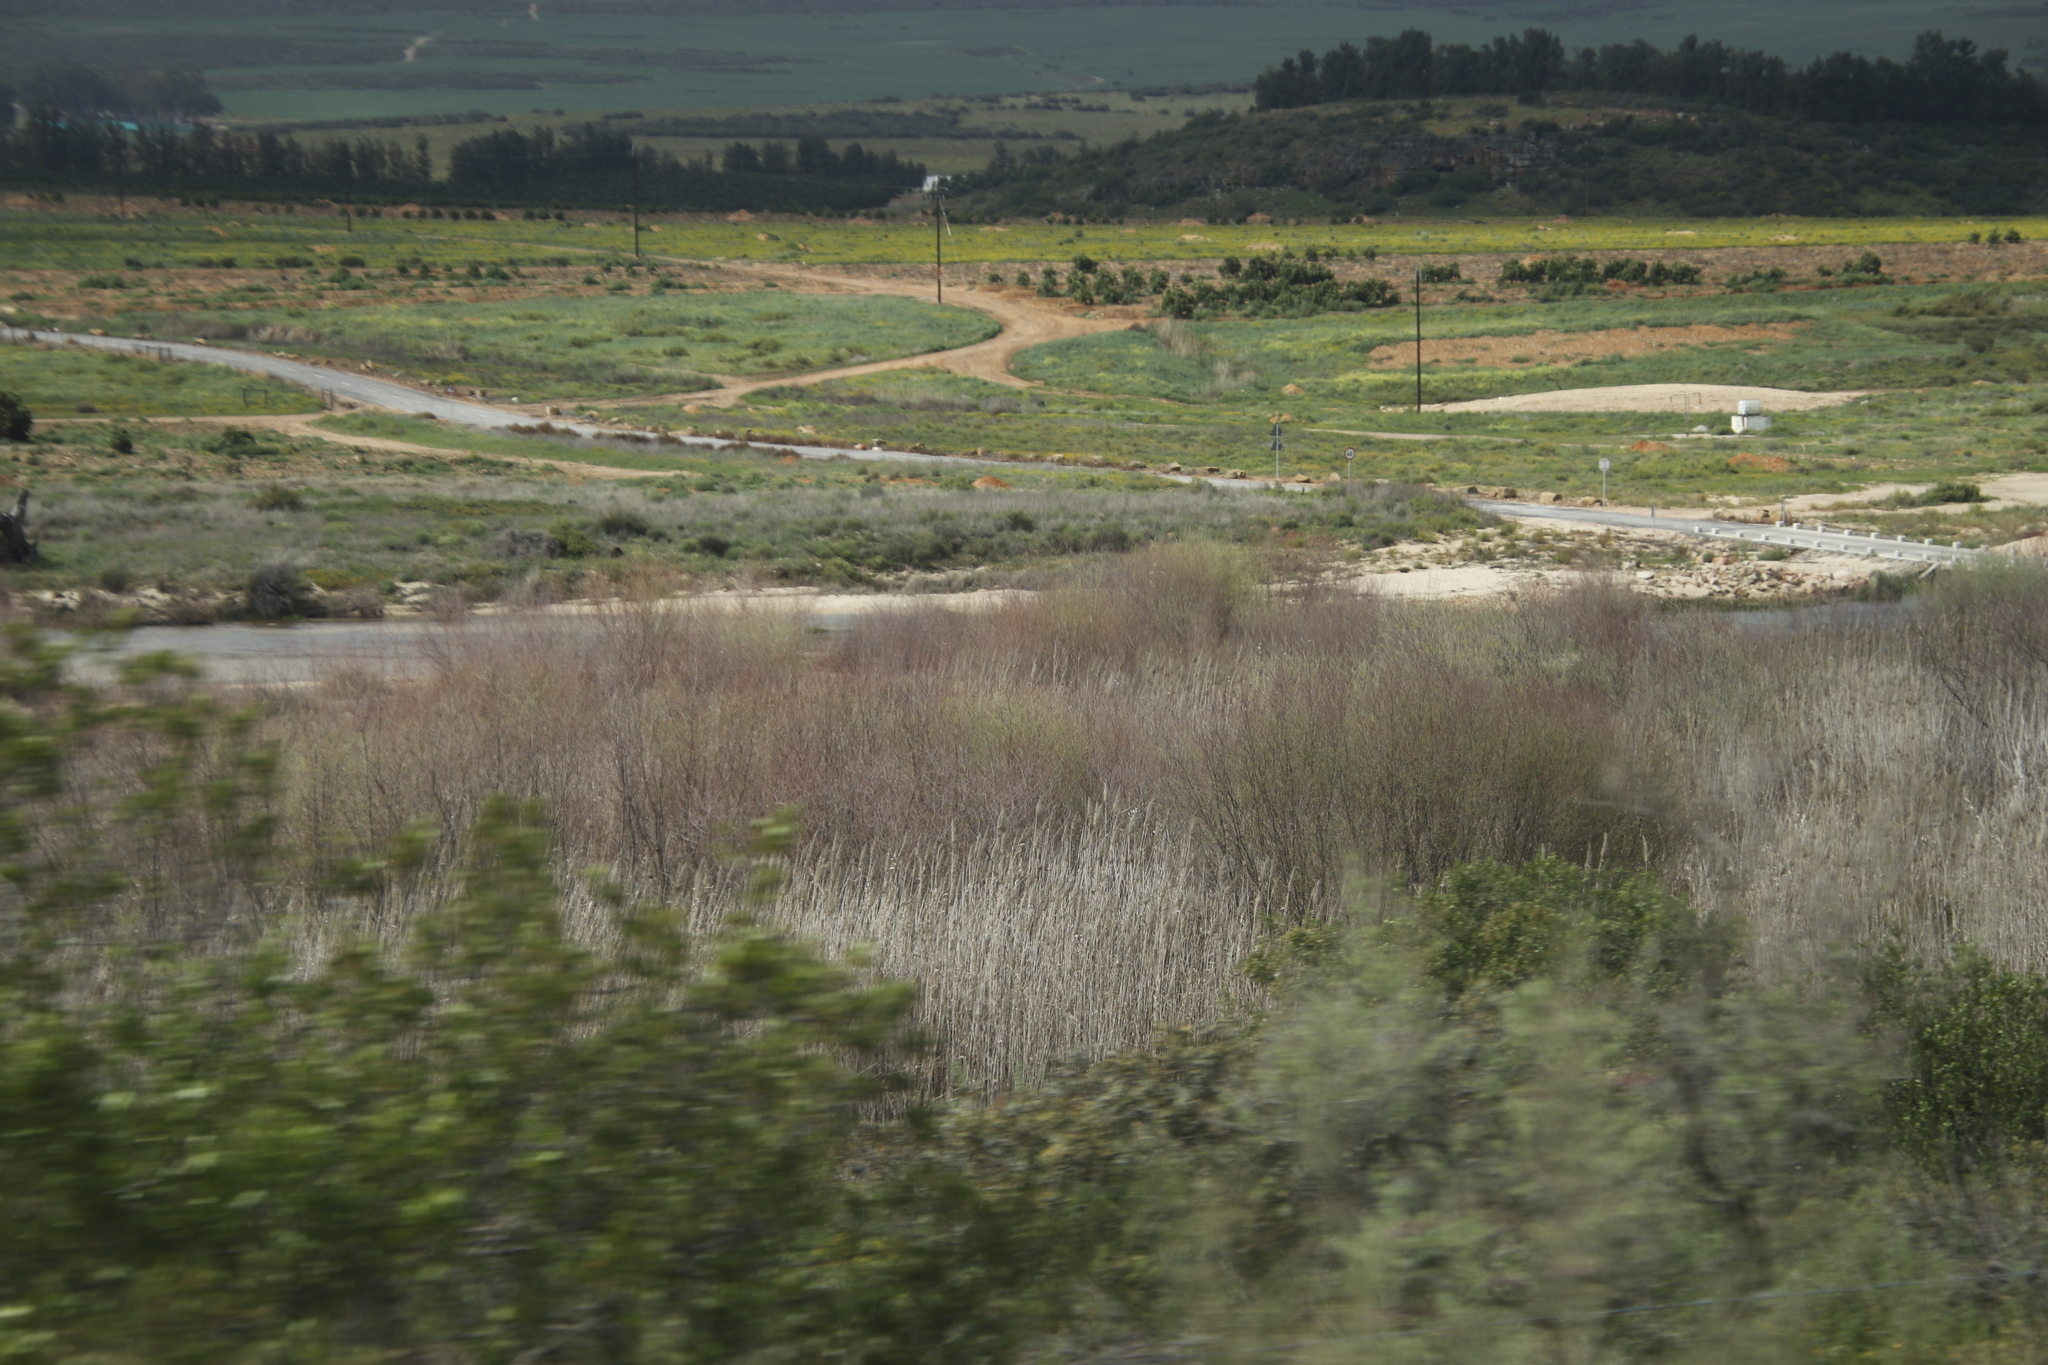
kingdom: Plantae
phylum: Tracheophyta
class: Liliopsida
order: Poales
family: Poaceae
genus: Phragmites
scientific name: Phragmites australis
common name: Common reed
